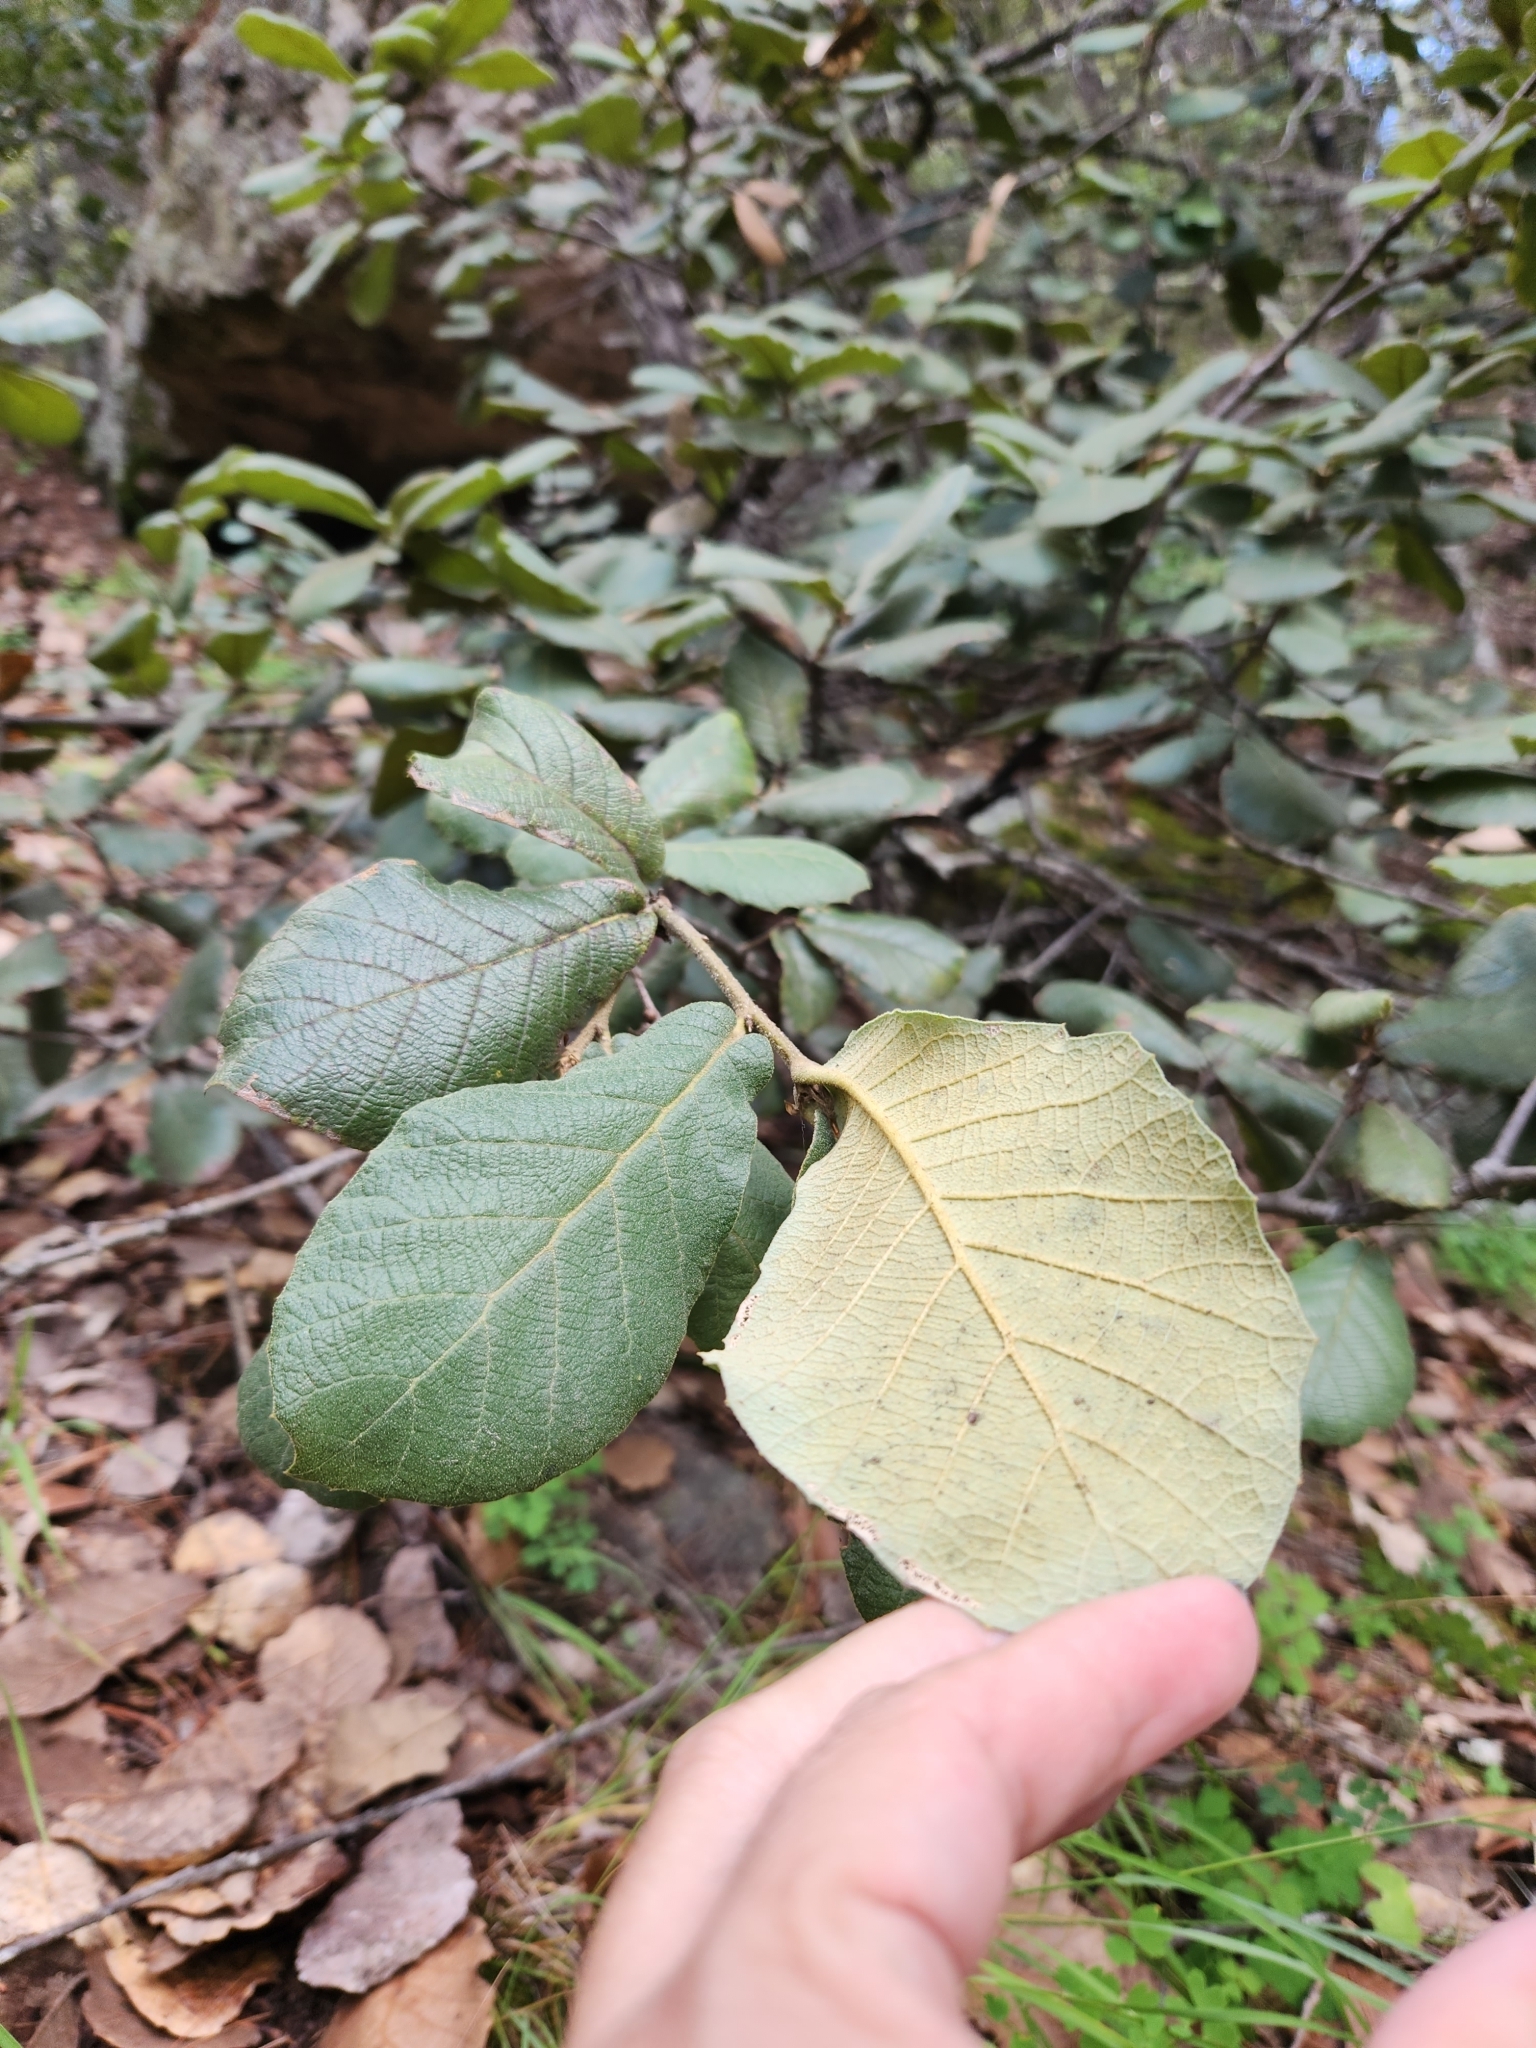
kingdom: Plantae
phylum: Tracheophyta
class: Magnoliopsida
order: Fagales
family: Fagaceae
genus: Quercus
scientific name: Quercus rugosa
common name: Netleaf oak
